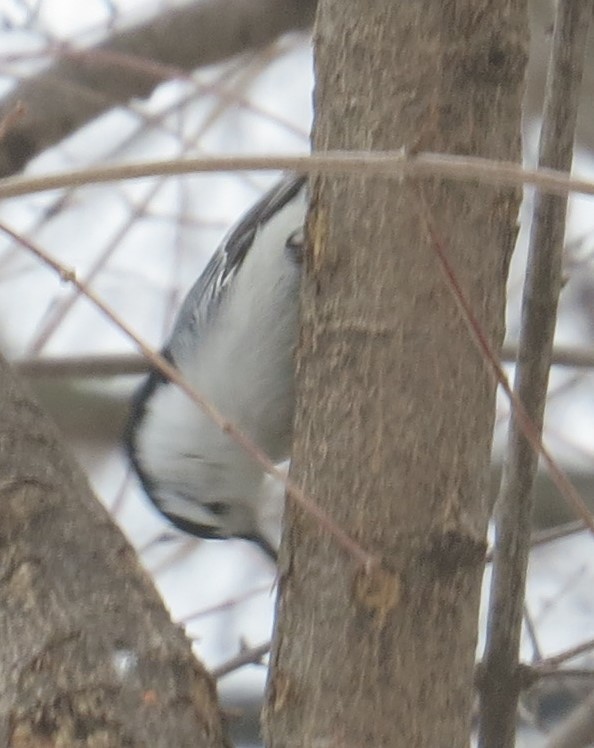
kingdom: Animalia
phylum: Chordata
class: Aves
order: Passeriformes
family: Sittidae
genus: Sitta
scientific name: Sitta carolinensis
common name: White-breasted nuthatch
